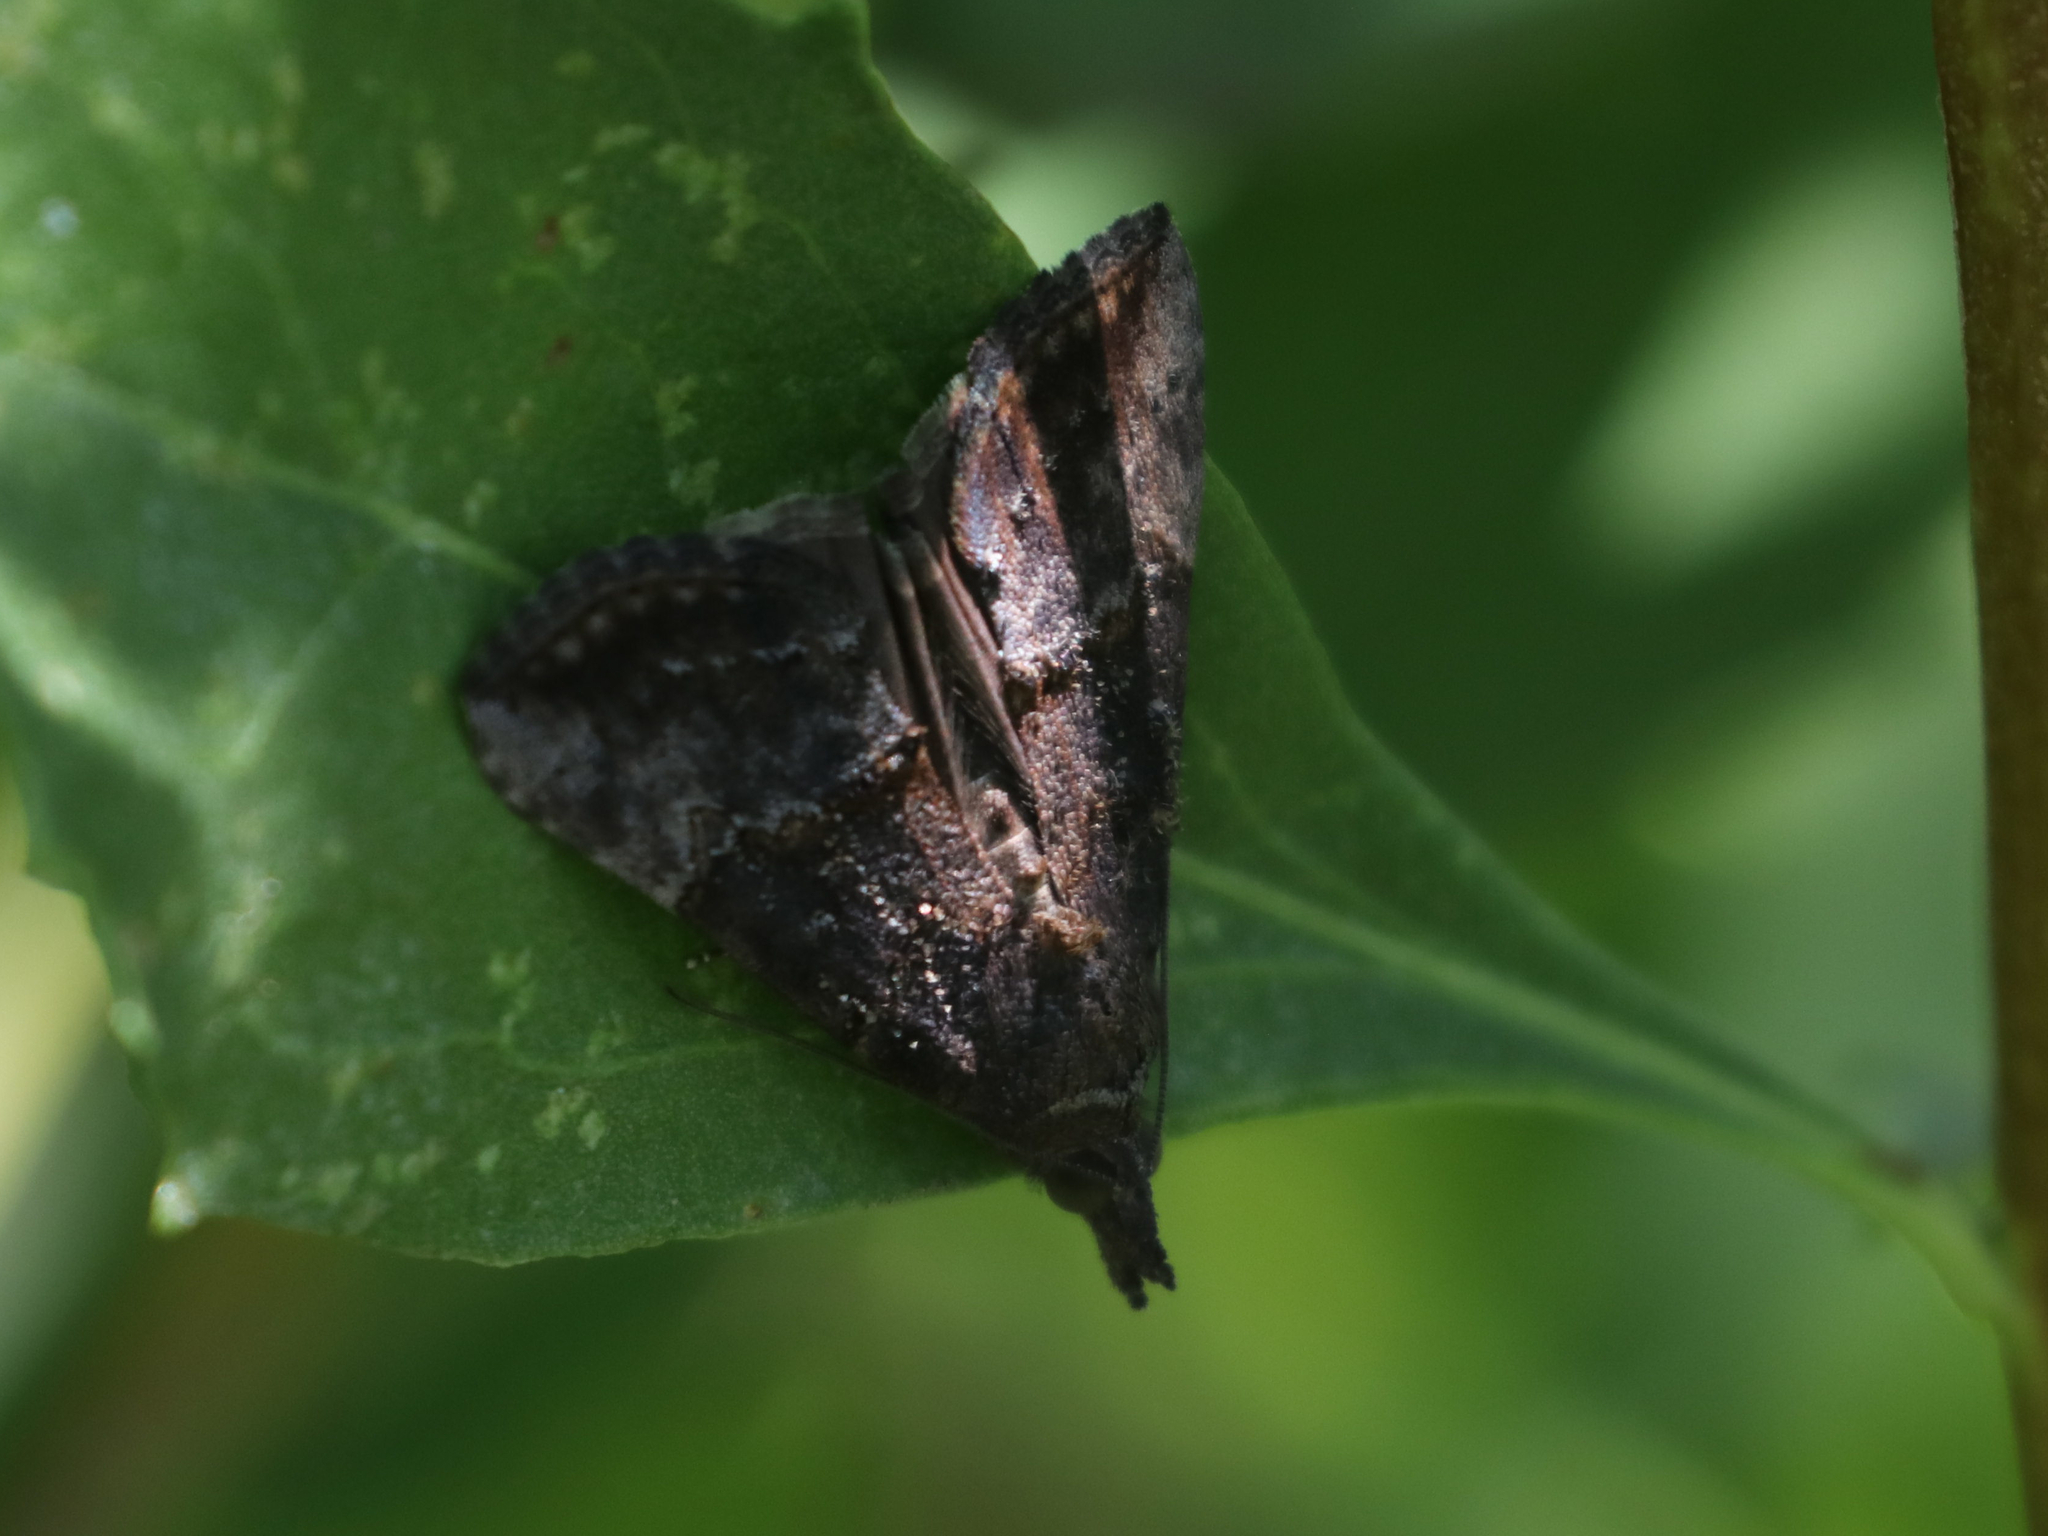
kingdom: Animalia
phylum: Arthropoda
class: Insecta
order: Lepidoptera
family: Erebidae
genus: Hypena
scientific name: Hypena scabra
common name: Green cloverworm
